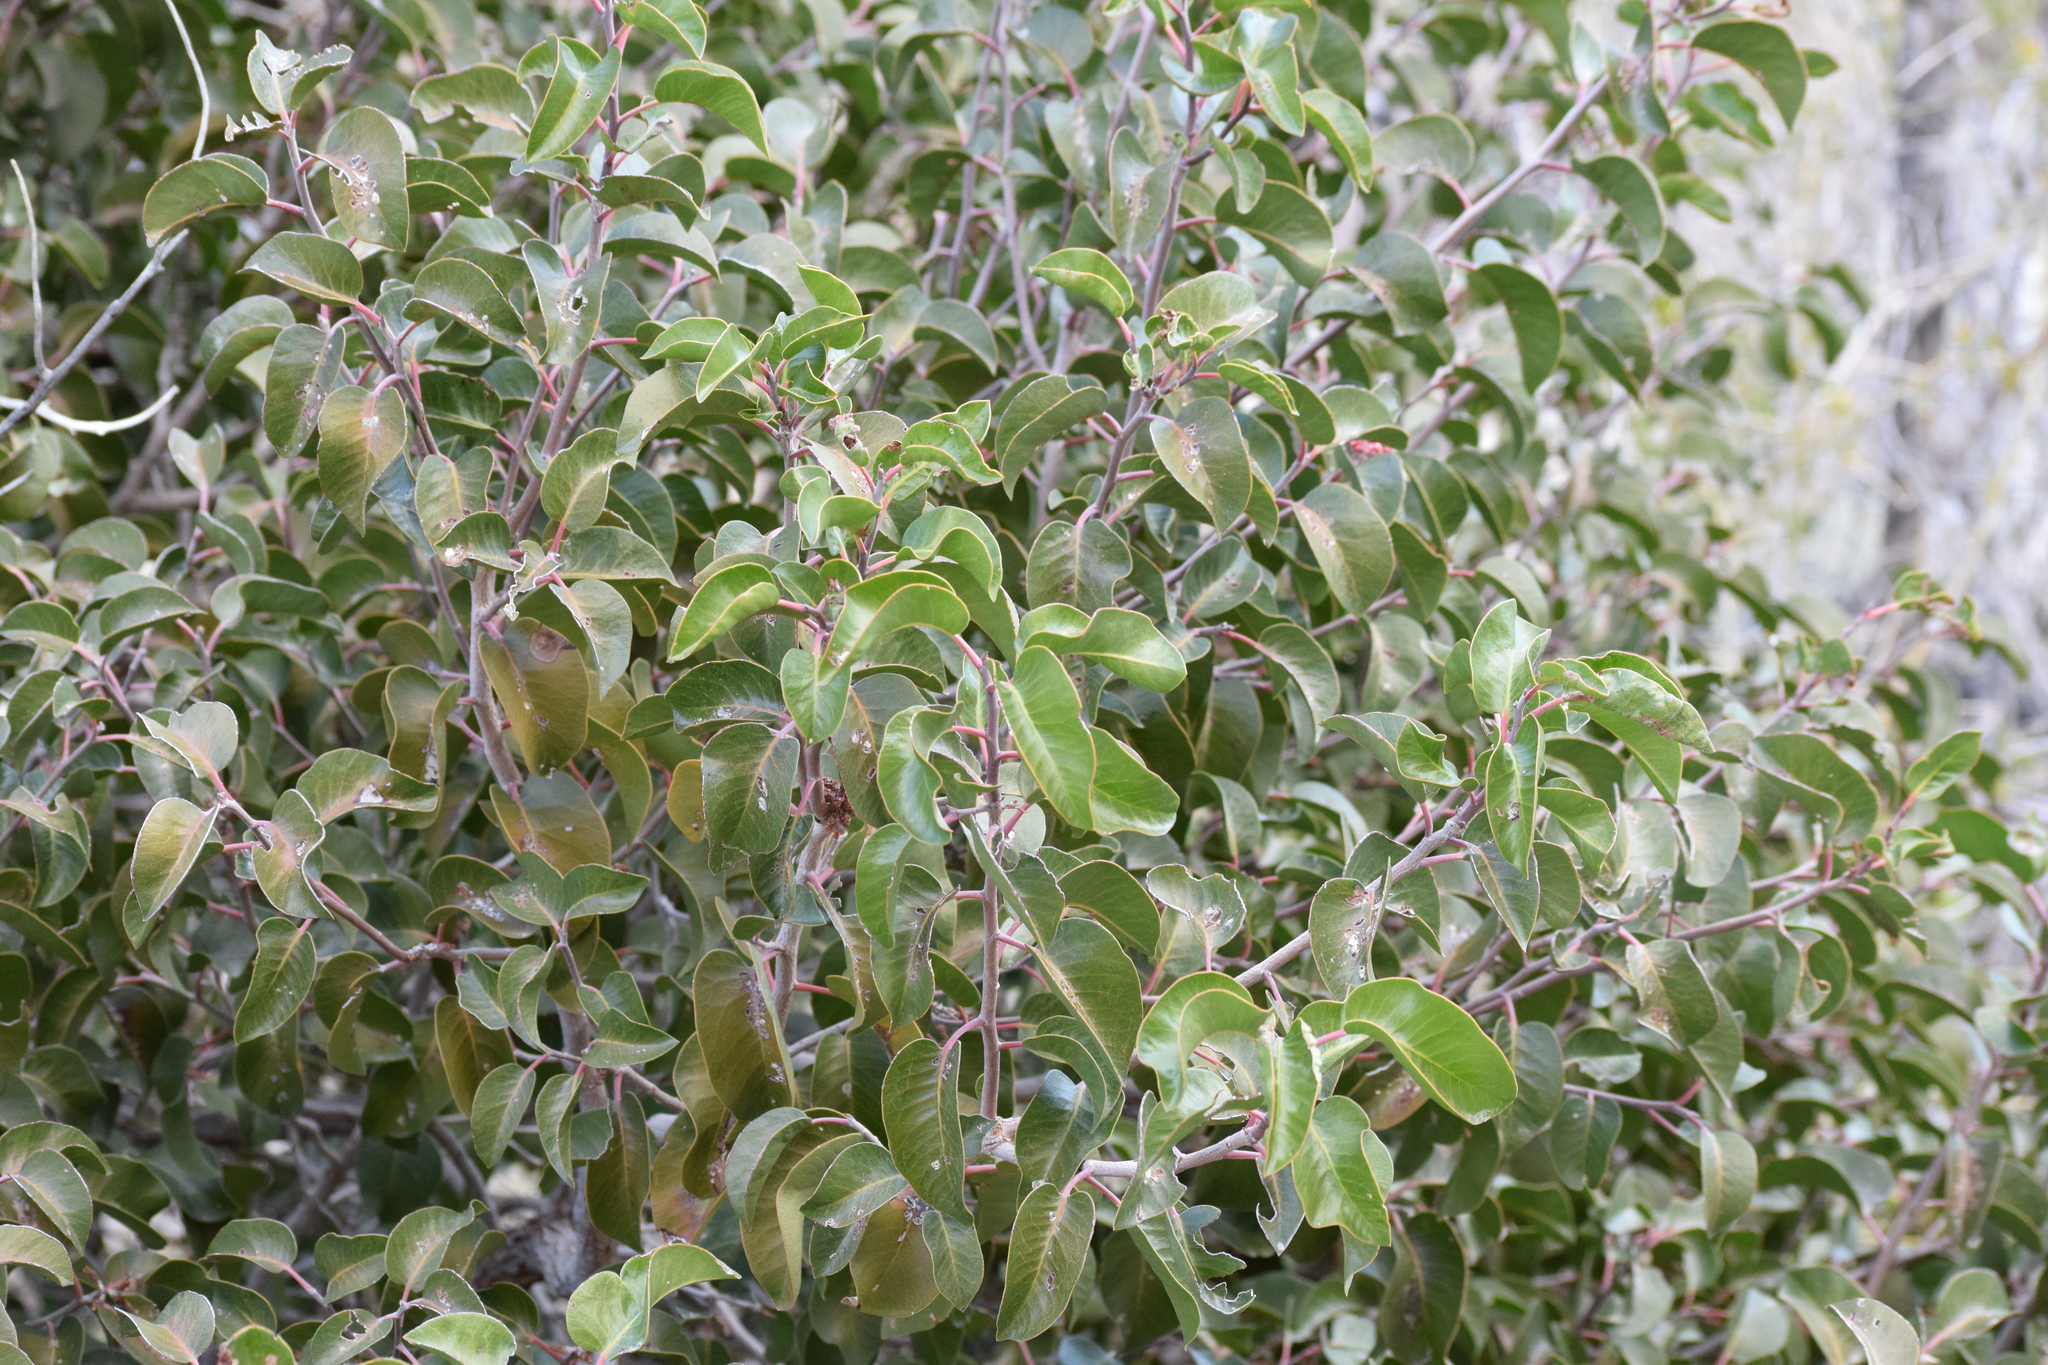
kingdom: Plantae
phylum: Tracheophyta
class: Magnoliopsida
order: Sapindales
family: Anacardiaceae
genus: Rhus
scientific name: Rhus ovata
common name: Sugar sumac
